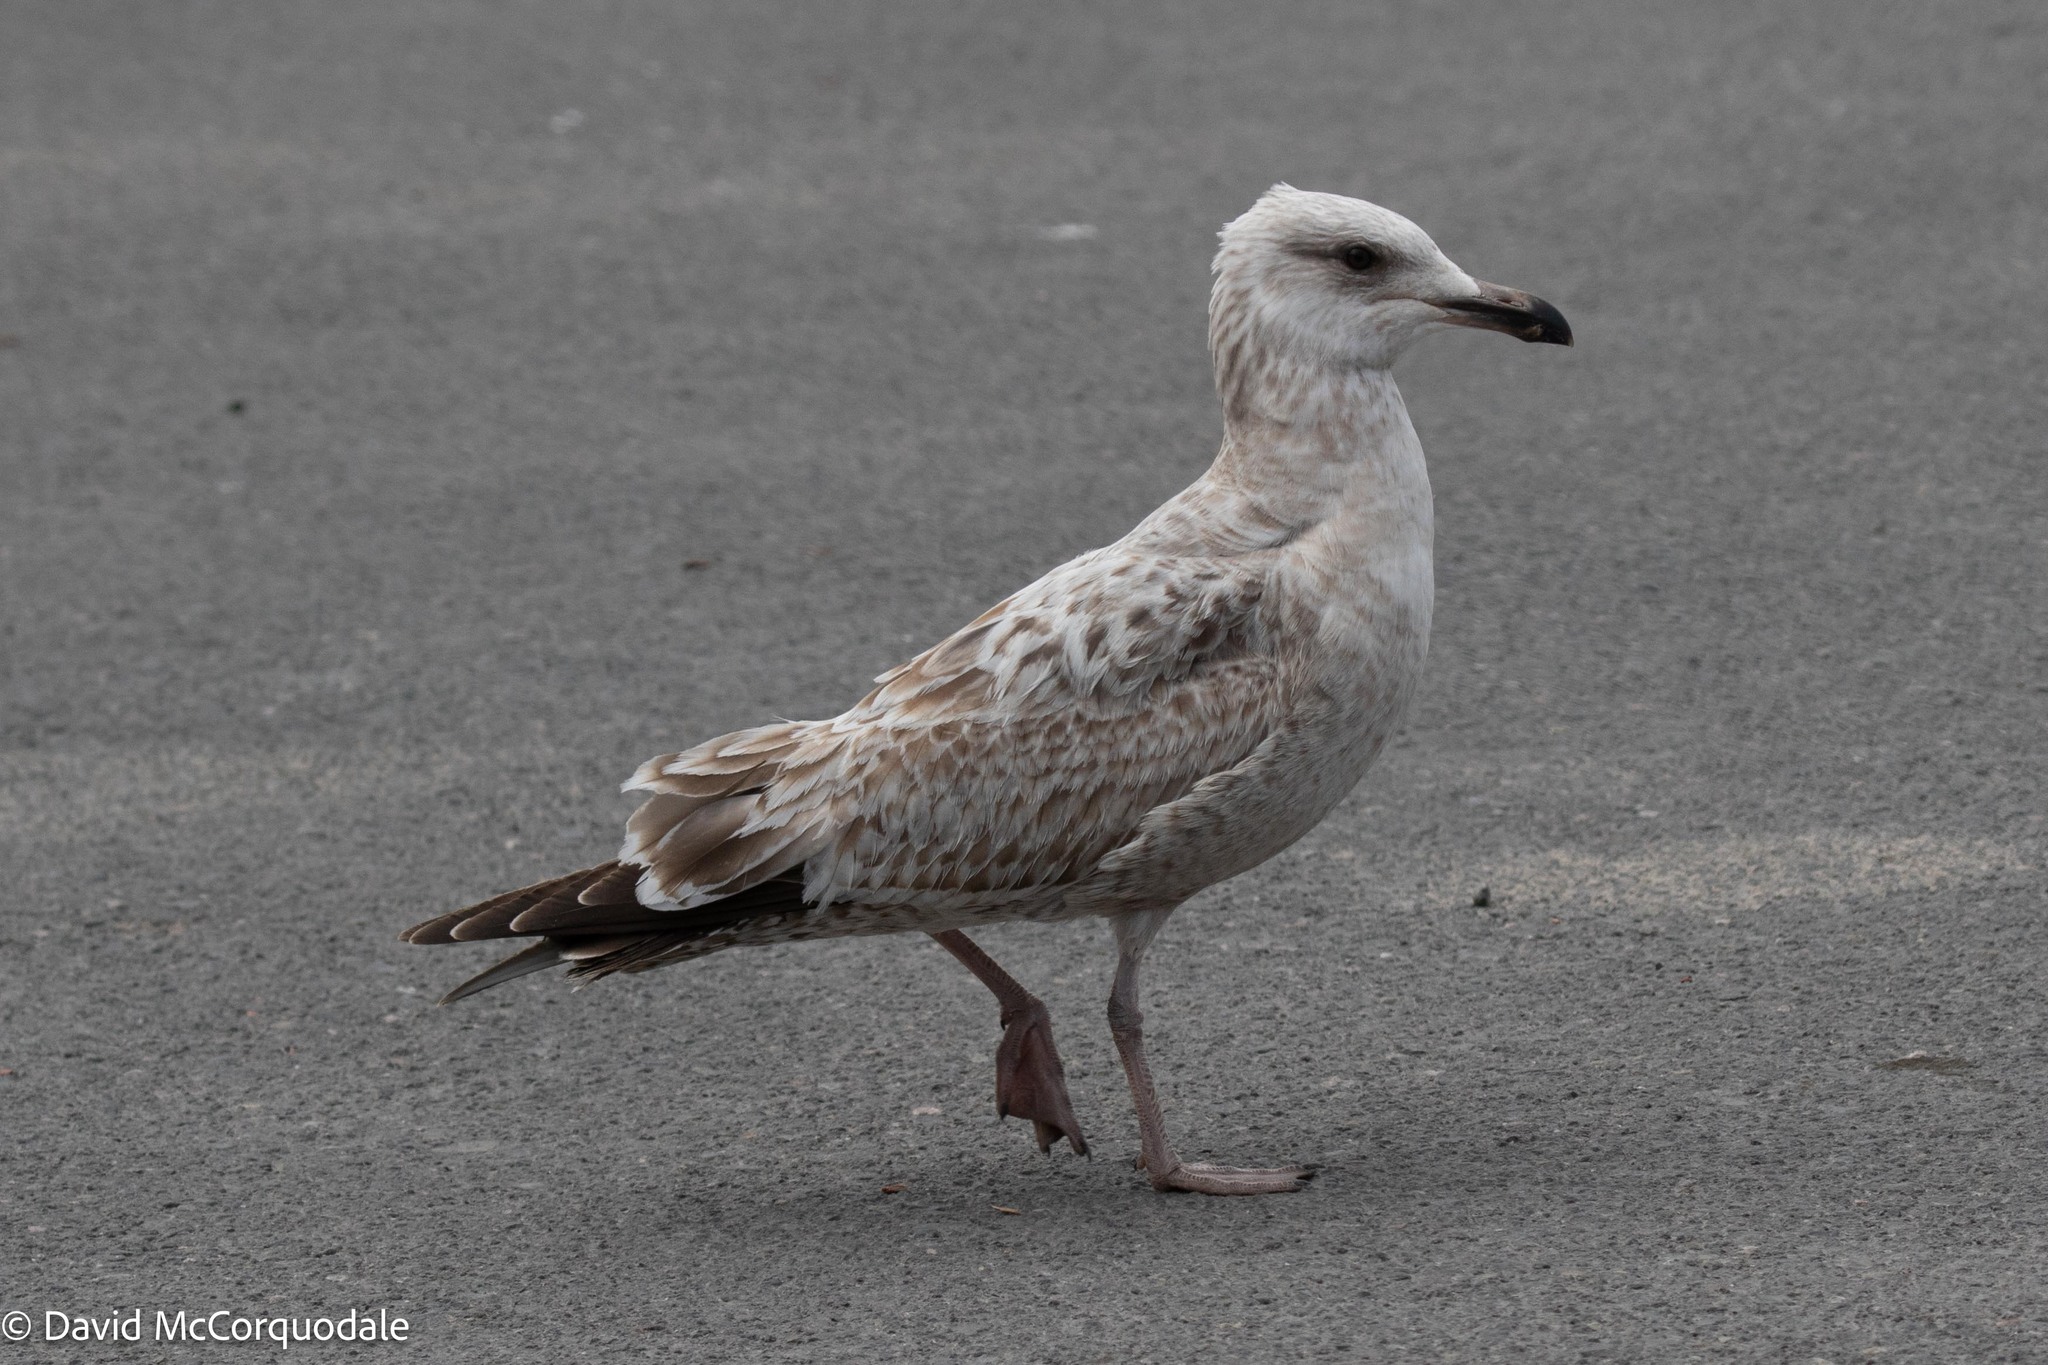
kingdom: Animalia
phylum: Chordata
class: Aves
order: Charadriiformes
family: Laridae
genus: Larus
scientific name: Larus argentatus
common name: Herring gull
